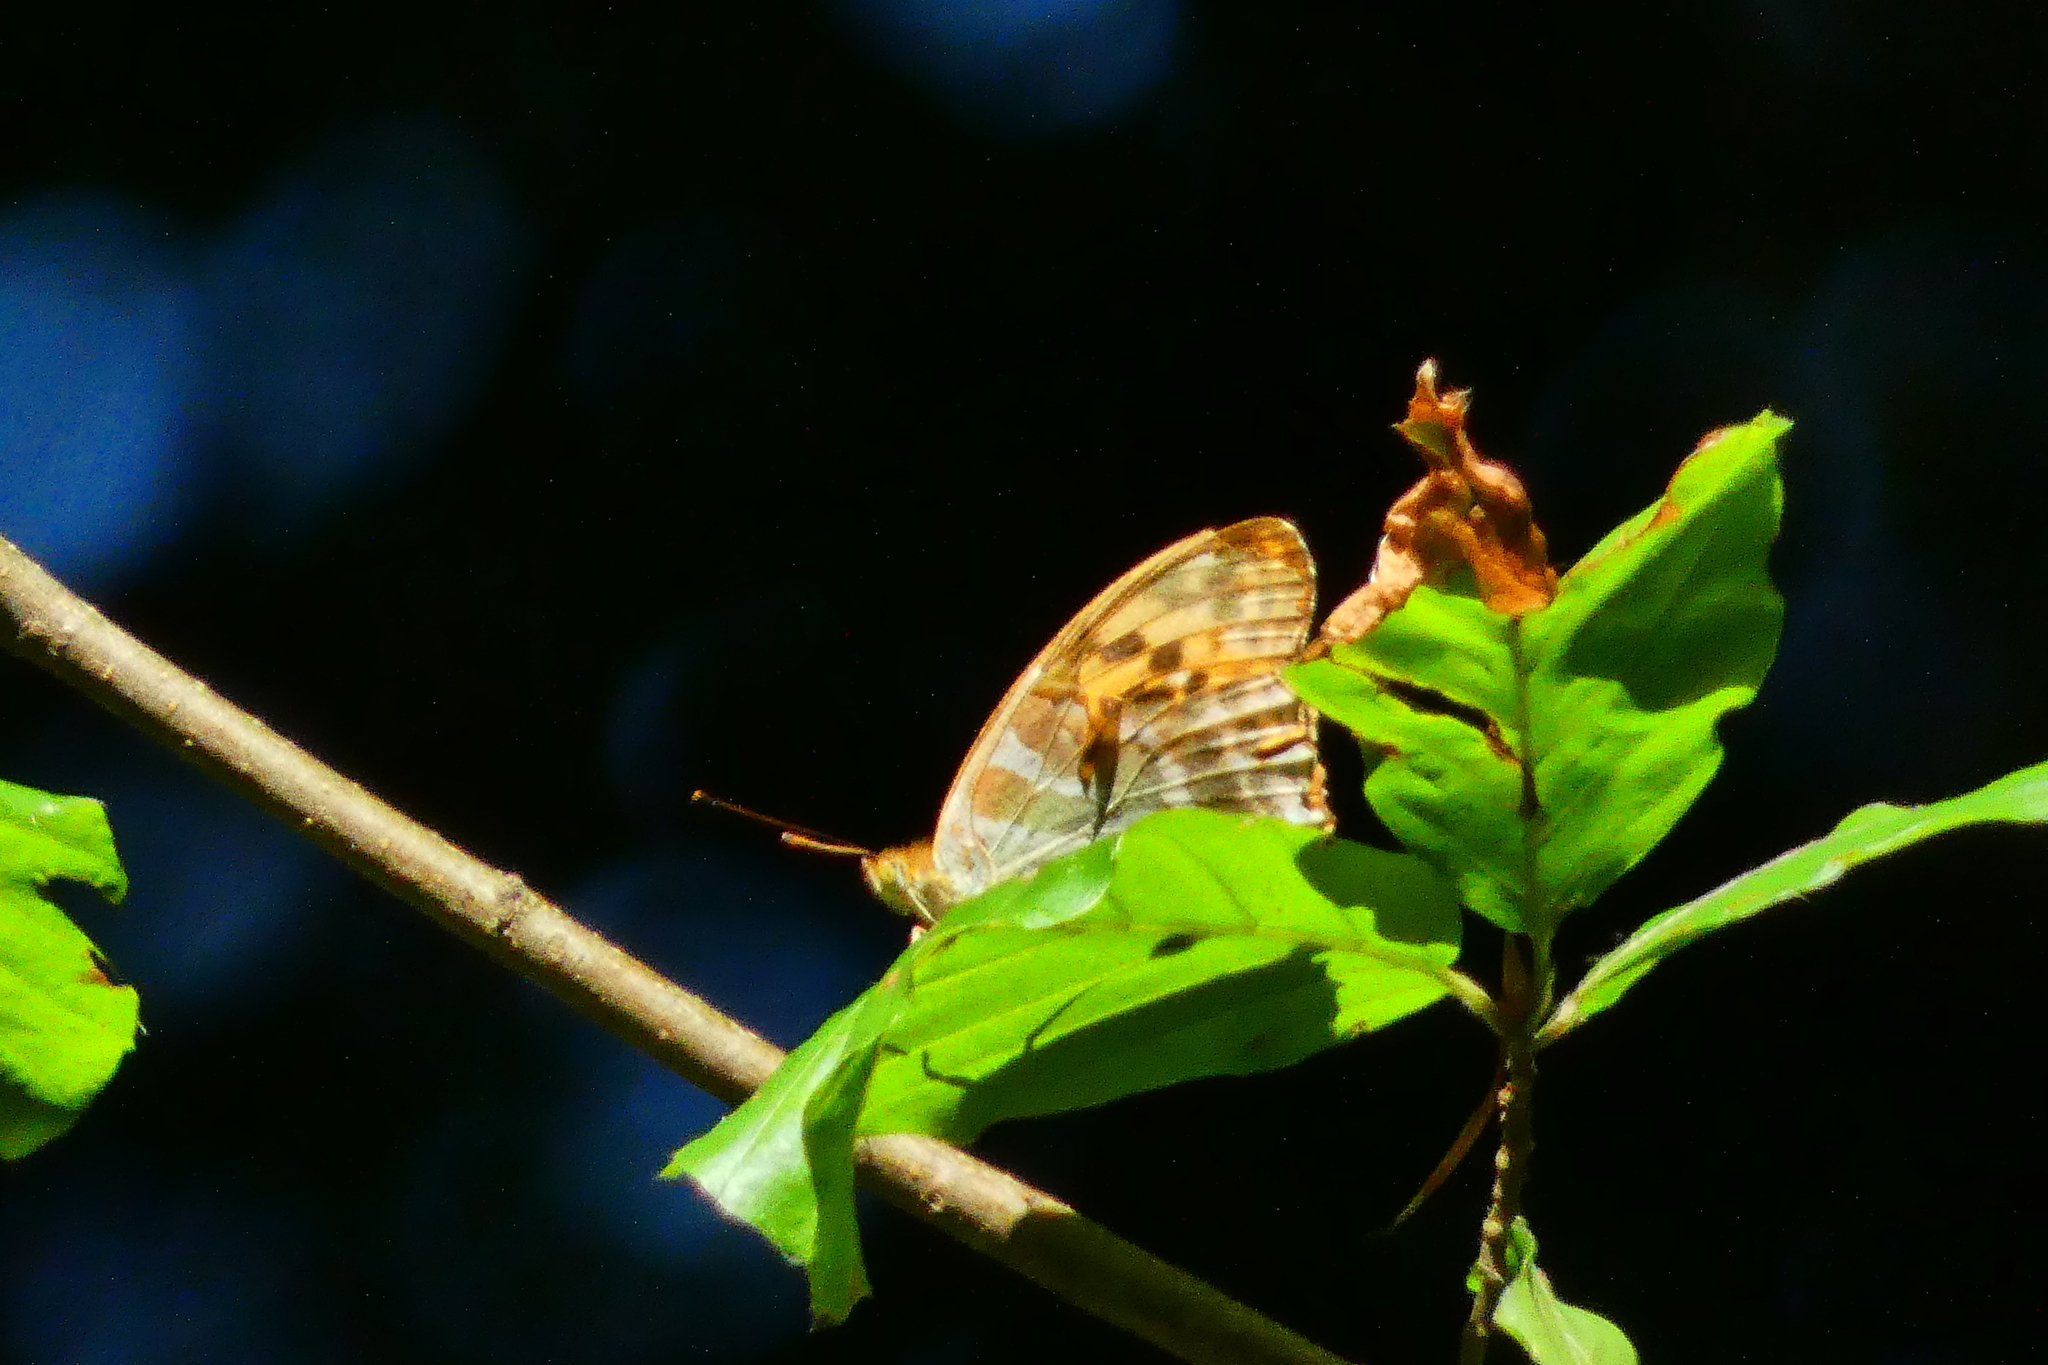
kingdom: Animalia
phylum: Arthropoda
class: Insecta
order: Lepidoptera
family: Nymphalidae
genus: Argynnis
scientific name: Argynnis paphia
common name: Silver-washed fritillary
